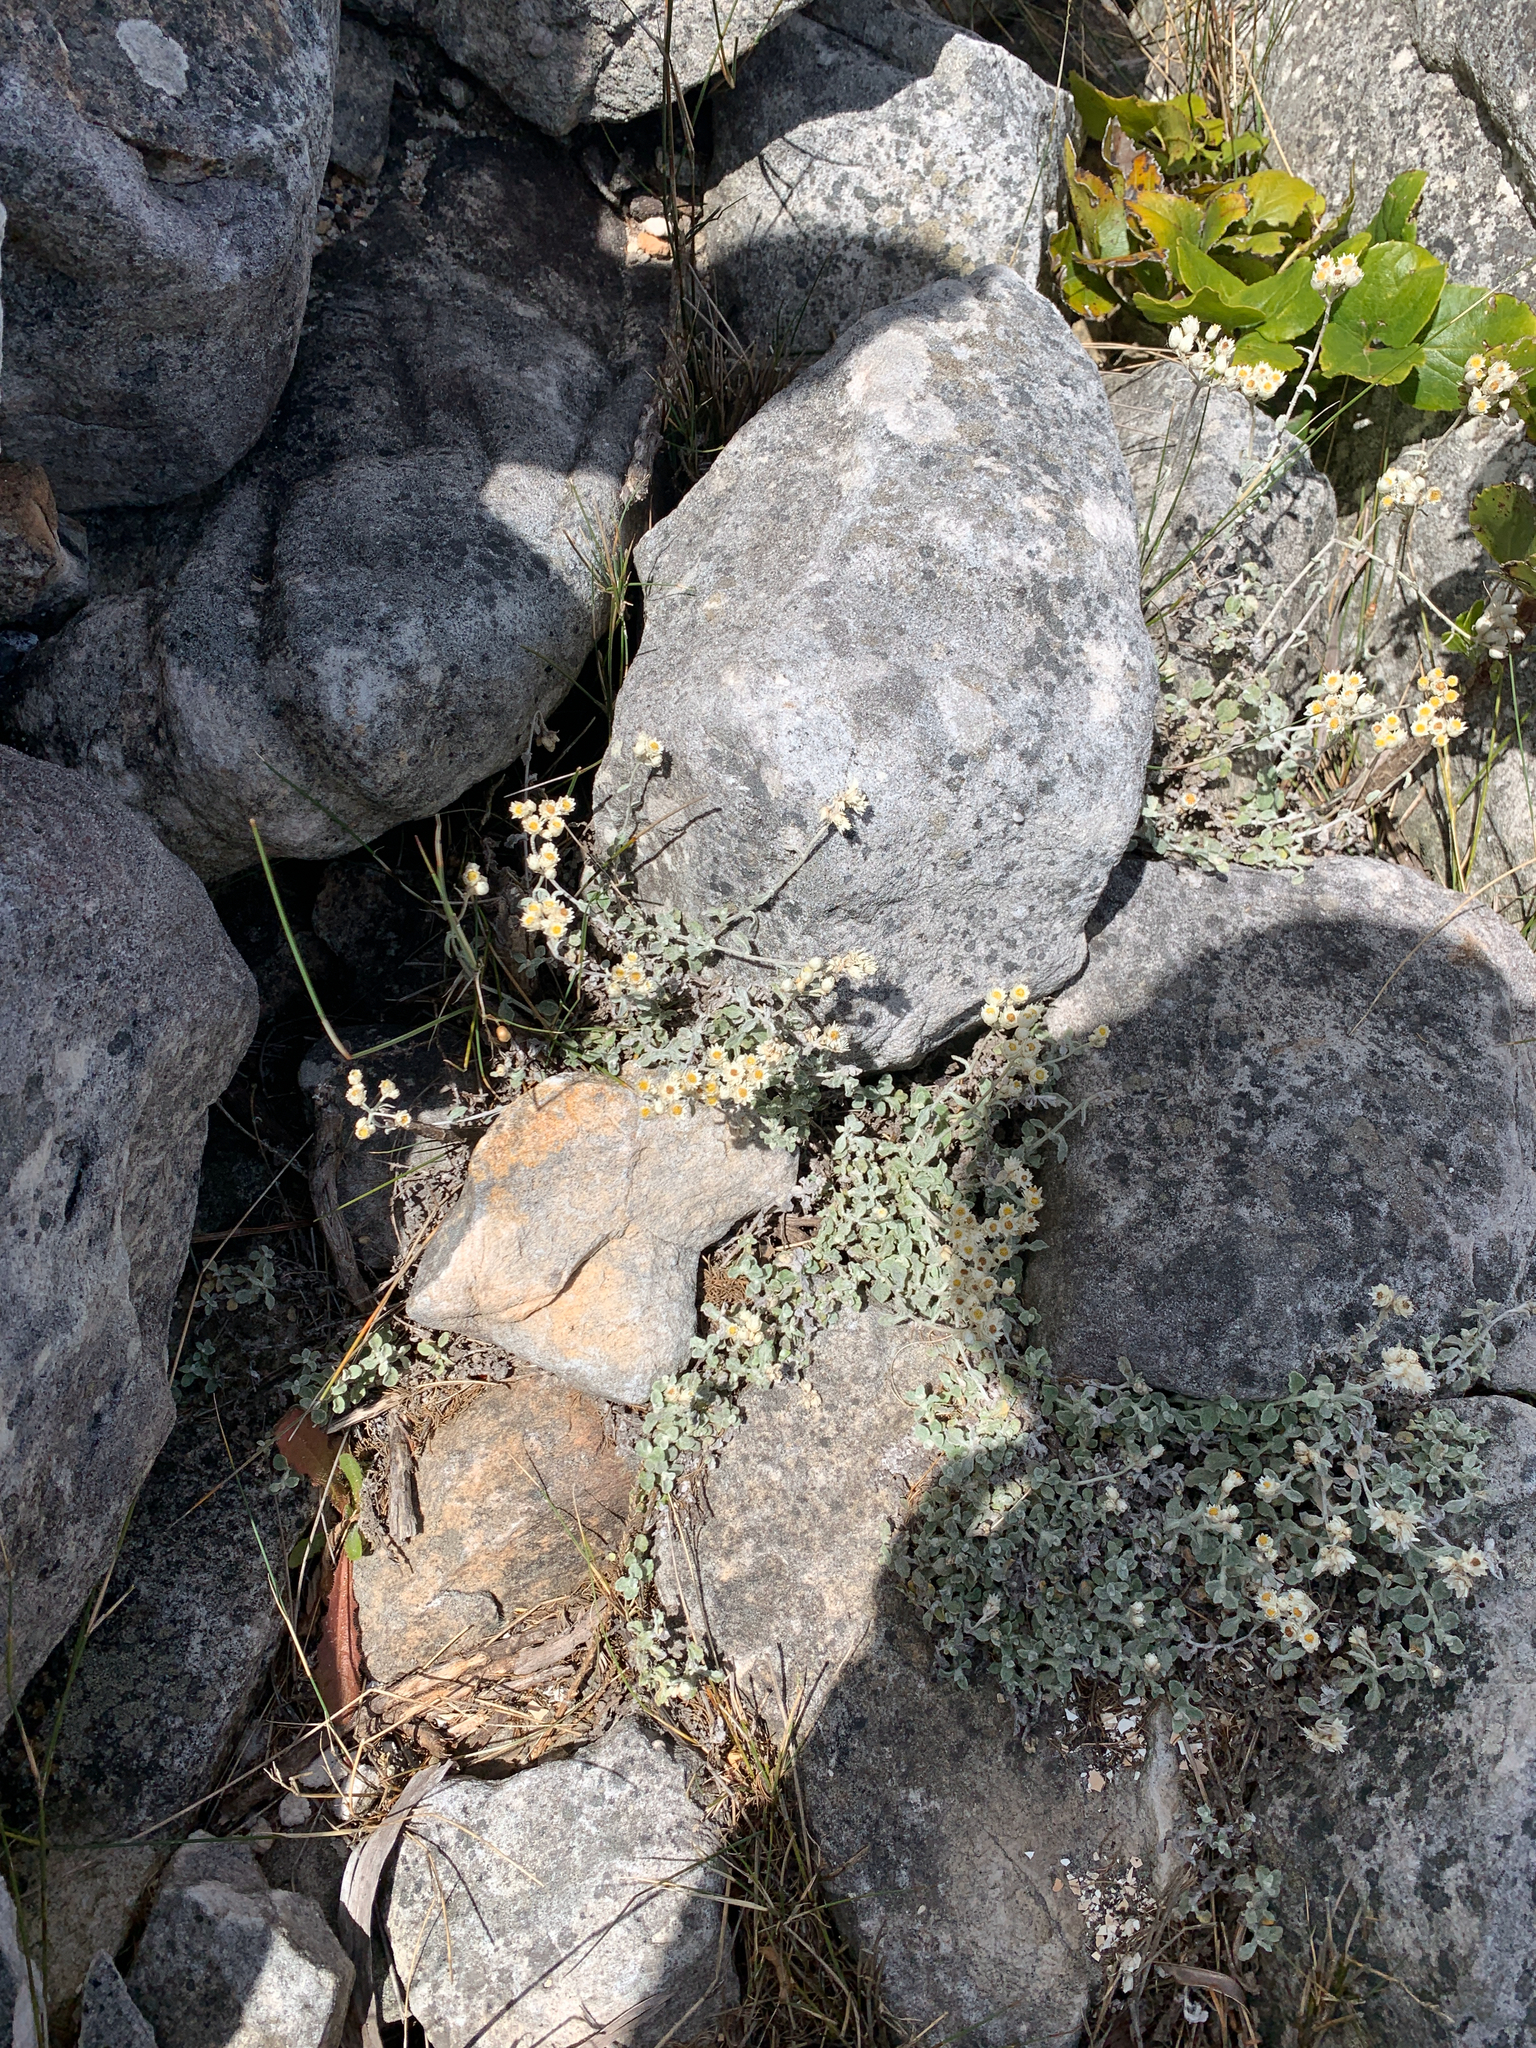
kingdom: Plantae
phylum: Tracheophyta
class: Magnoliopsida
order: Asterales
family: Asteraceae
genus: Helichrysum
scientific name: Helichrysum pandurifolium
